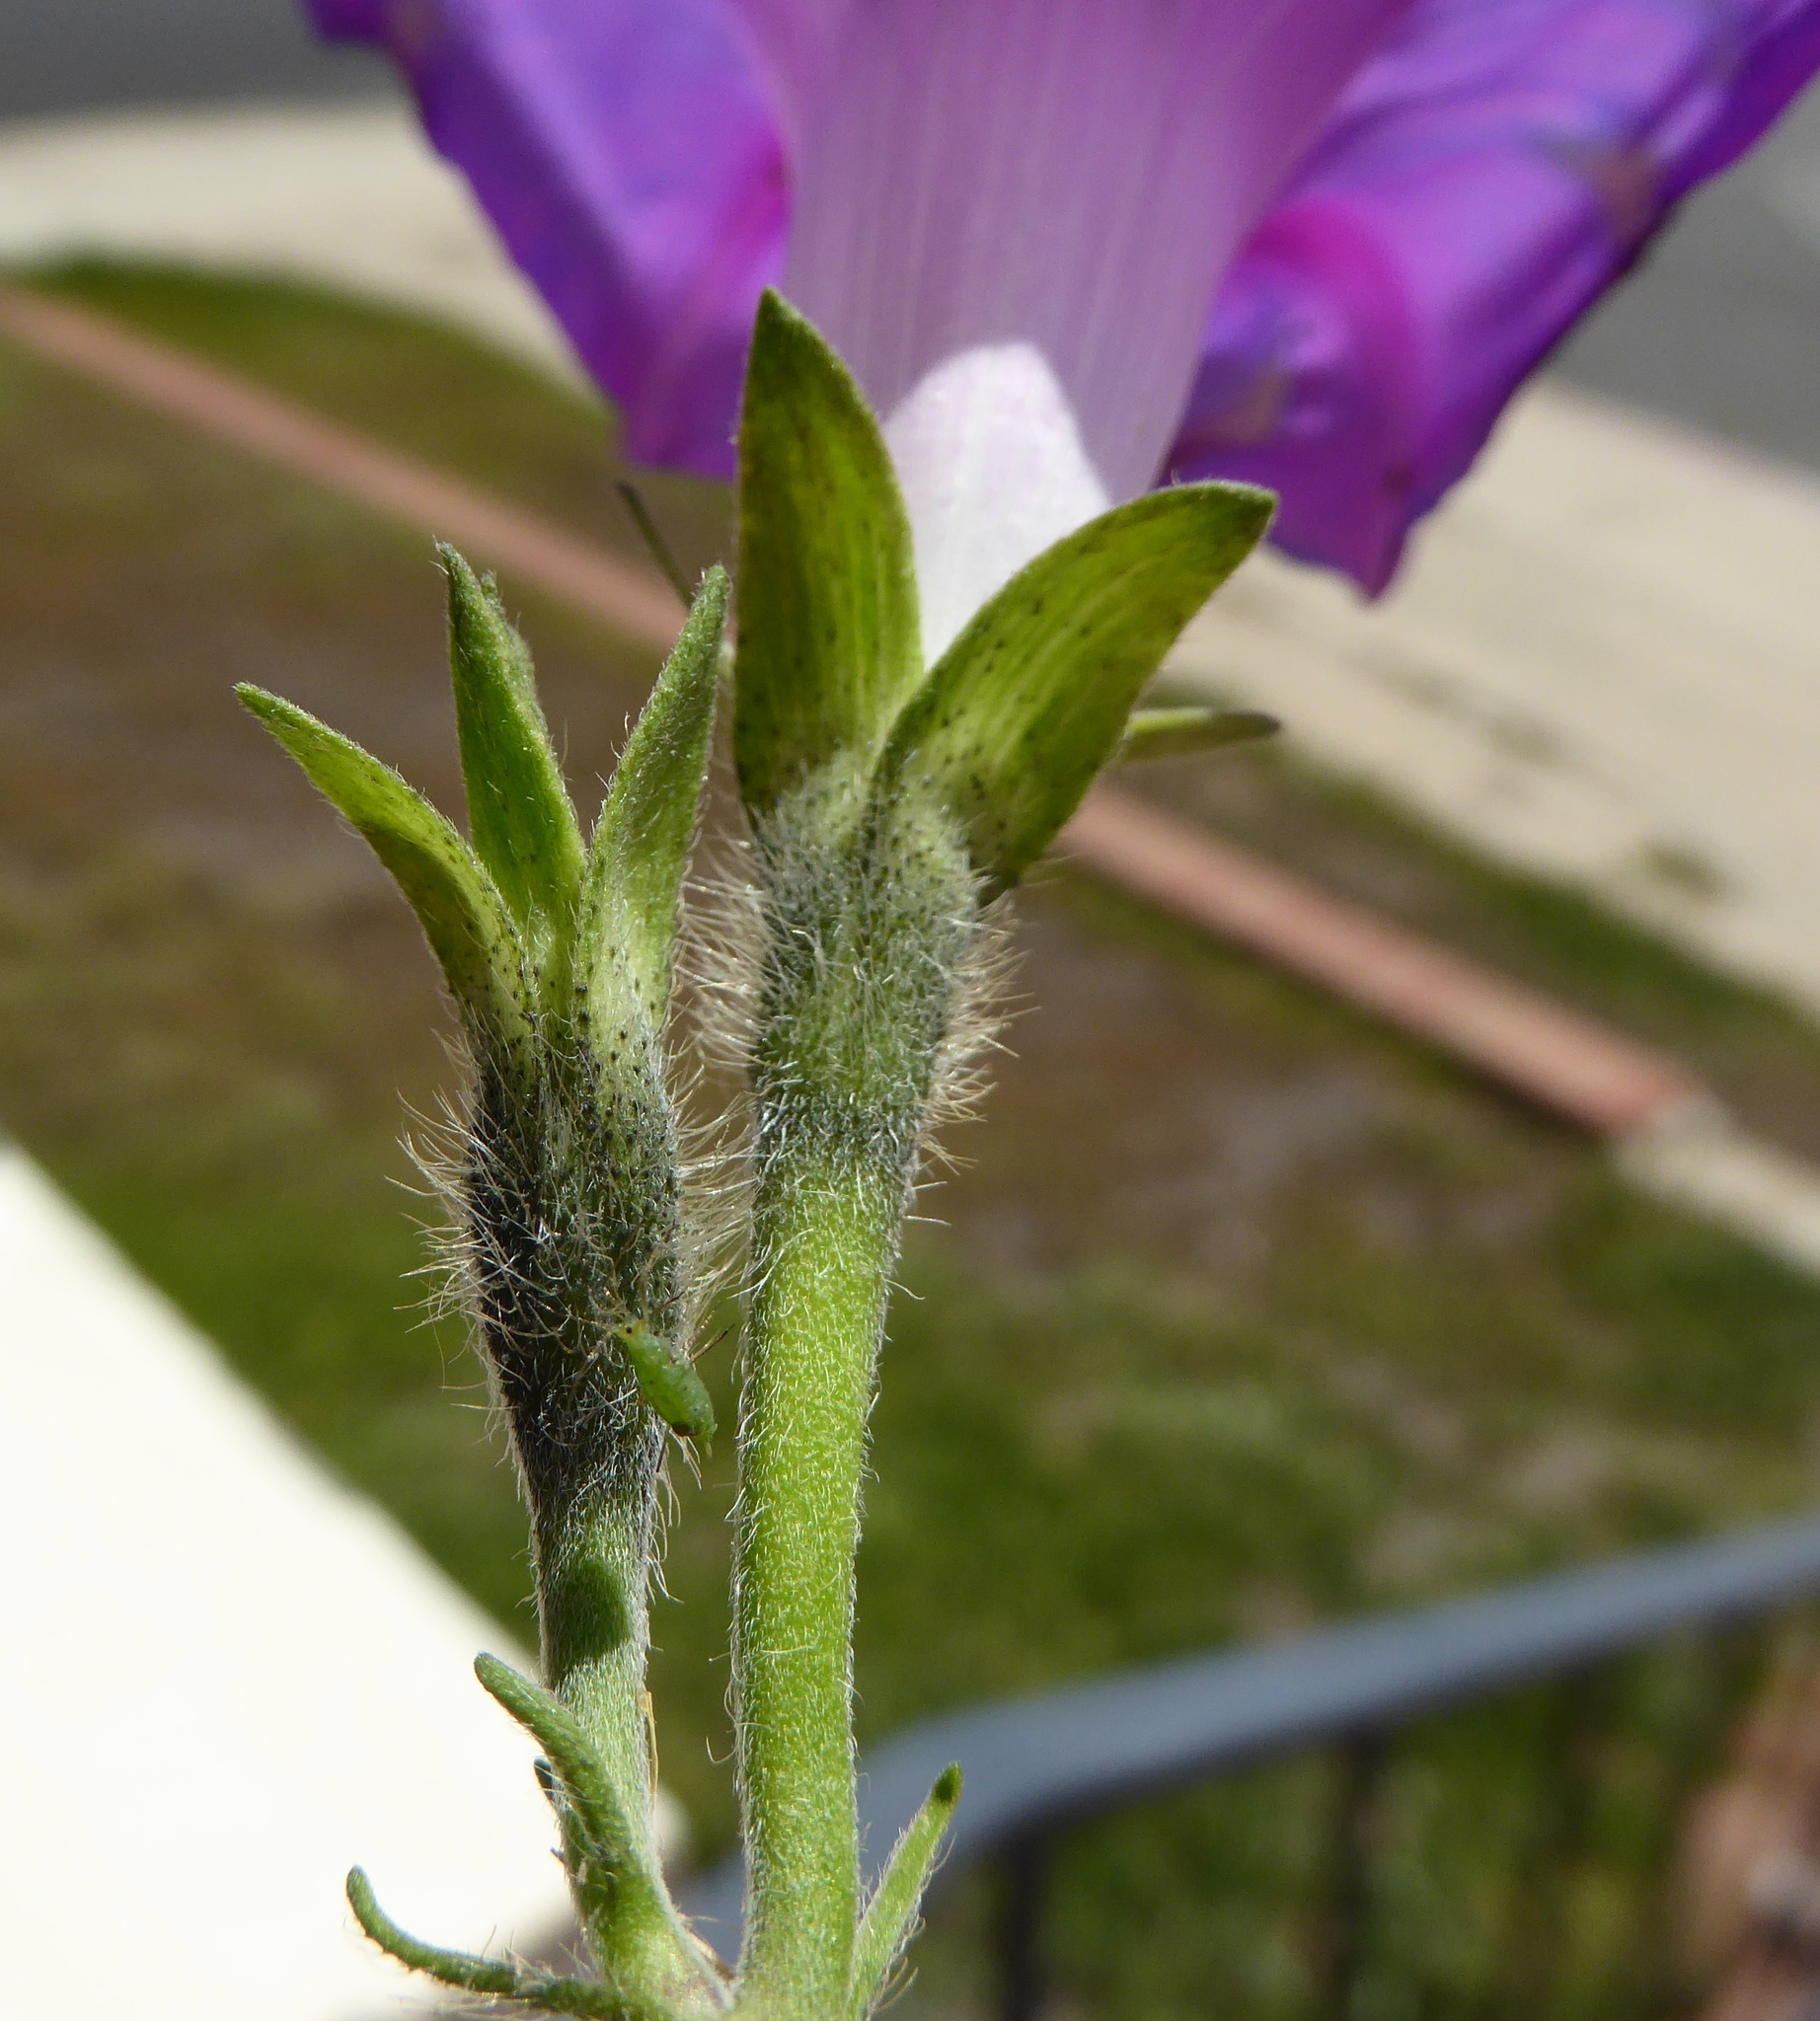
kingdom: Plantae
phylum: Tracheophyta
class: Magnoliopsida
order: Solanales
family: Convolvulaceae
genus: Ipomoea
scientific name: Ipomoea purpurea
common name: Common morning-glory
